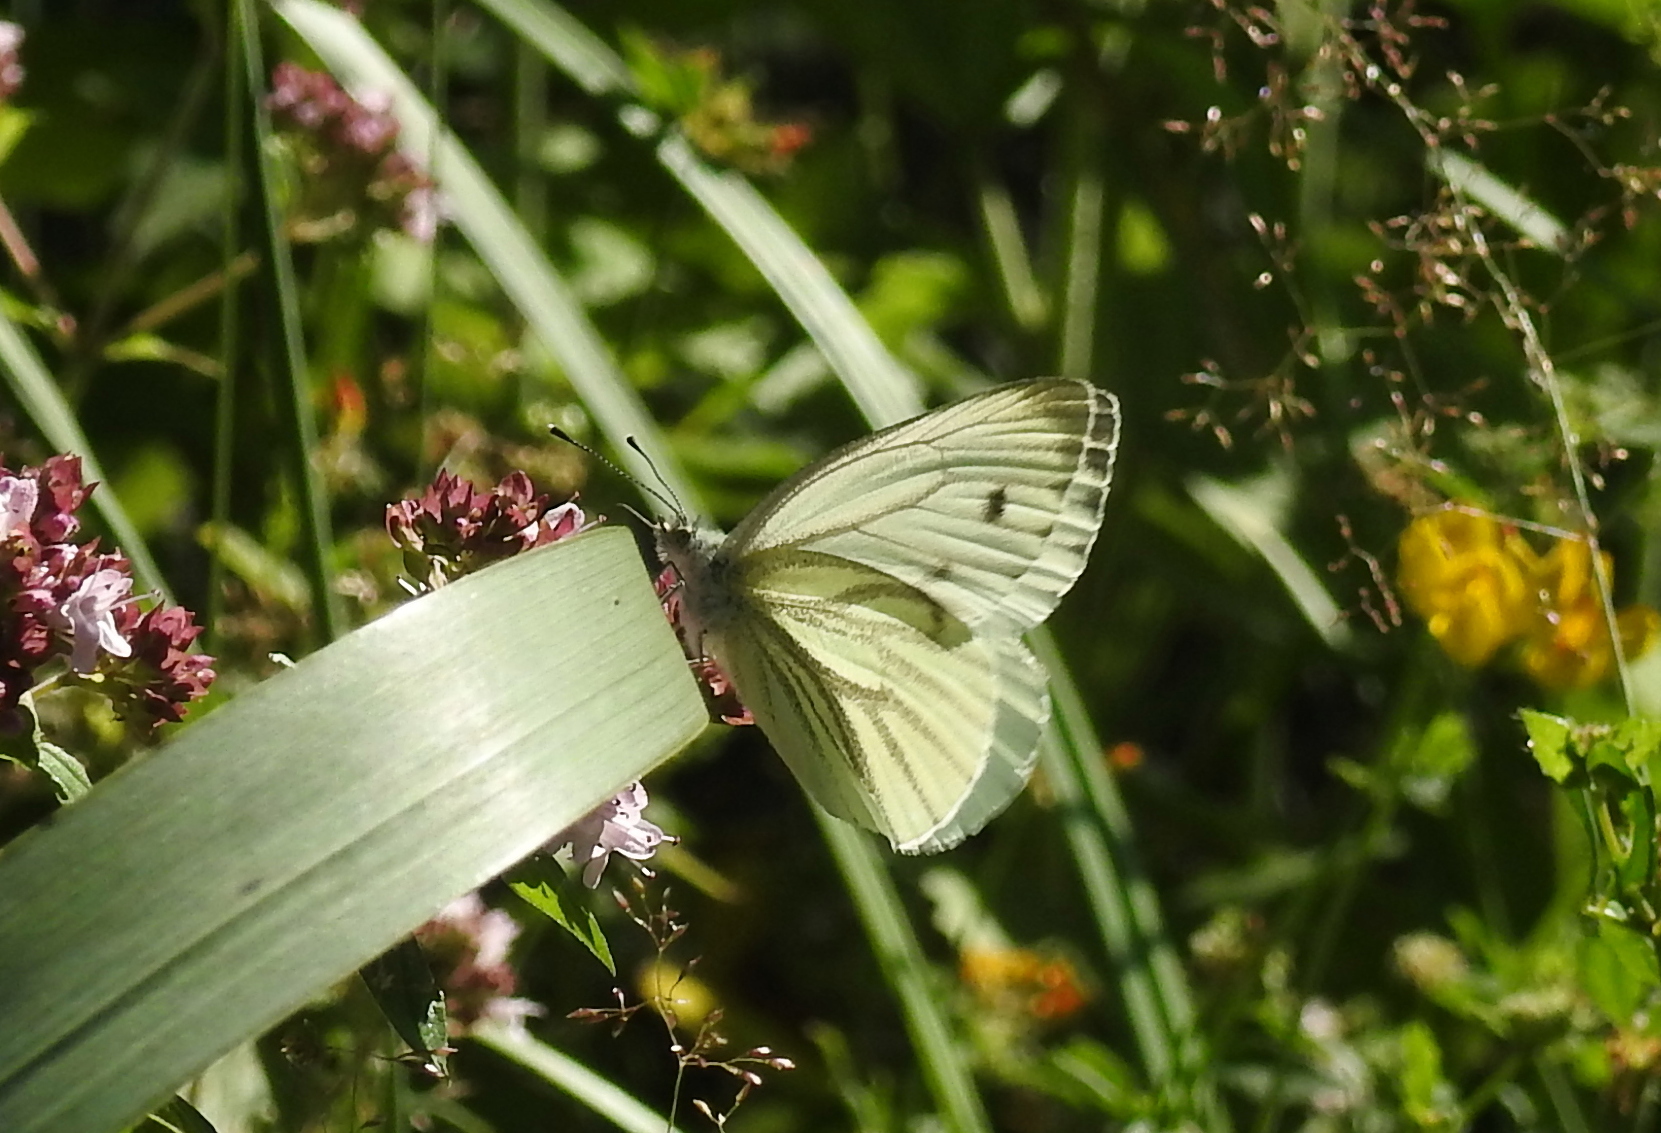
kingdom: Animalia
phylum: Arthropoda
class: Insecta
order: Lepidoptera
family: Pieridae
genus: Pieris
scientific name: Pieris napi
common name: Green-veined white
